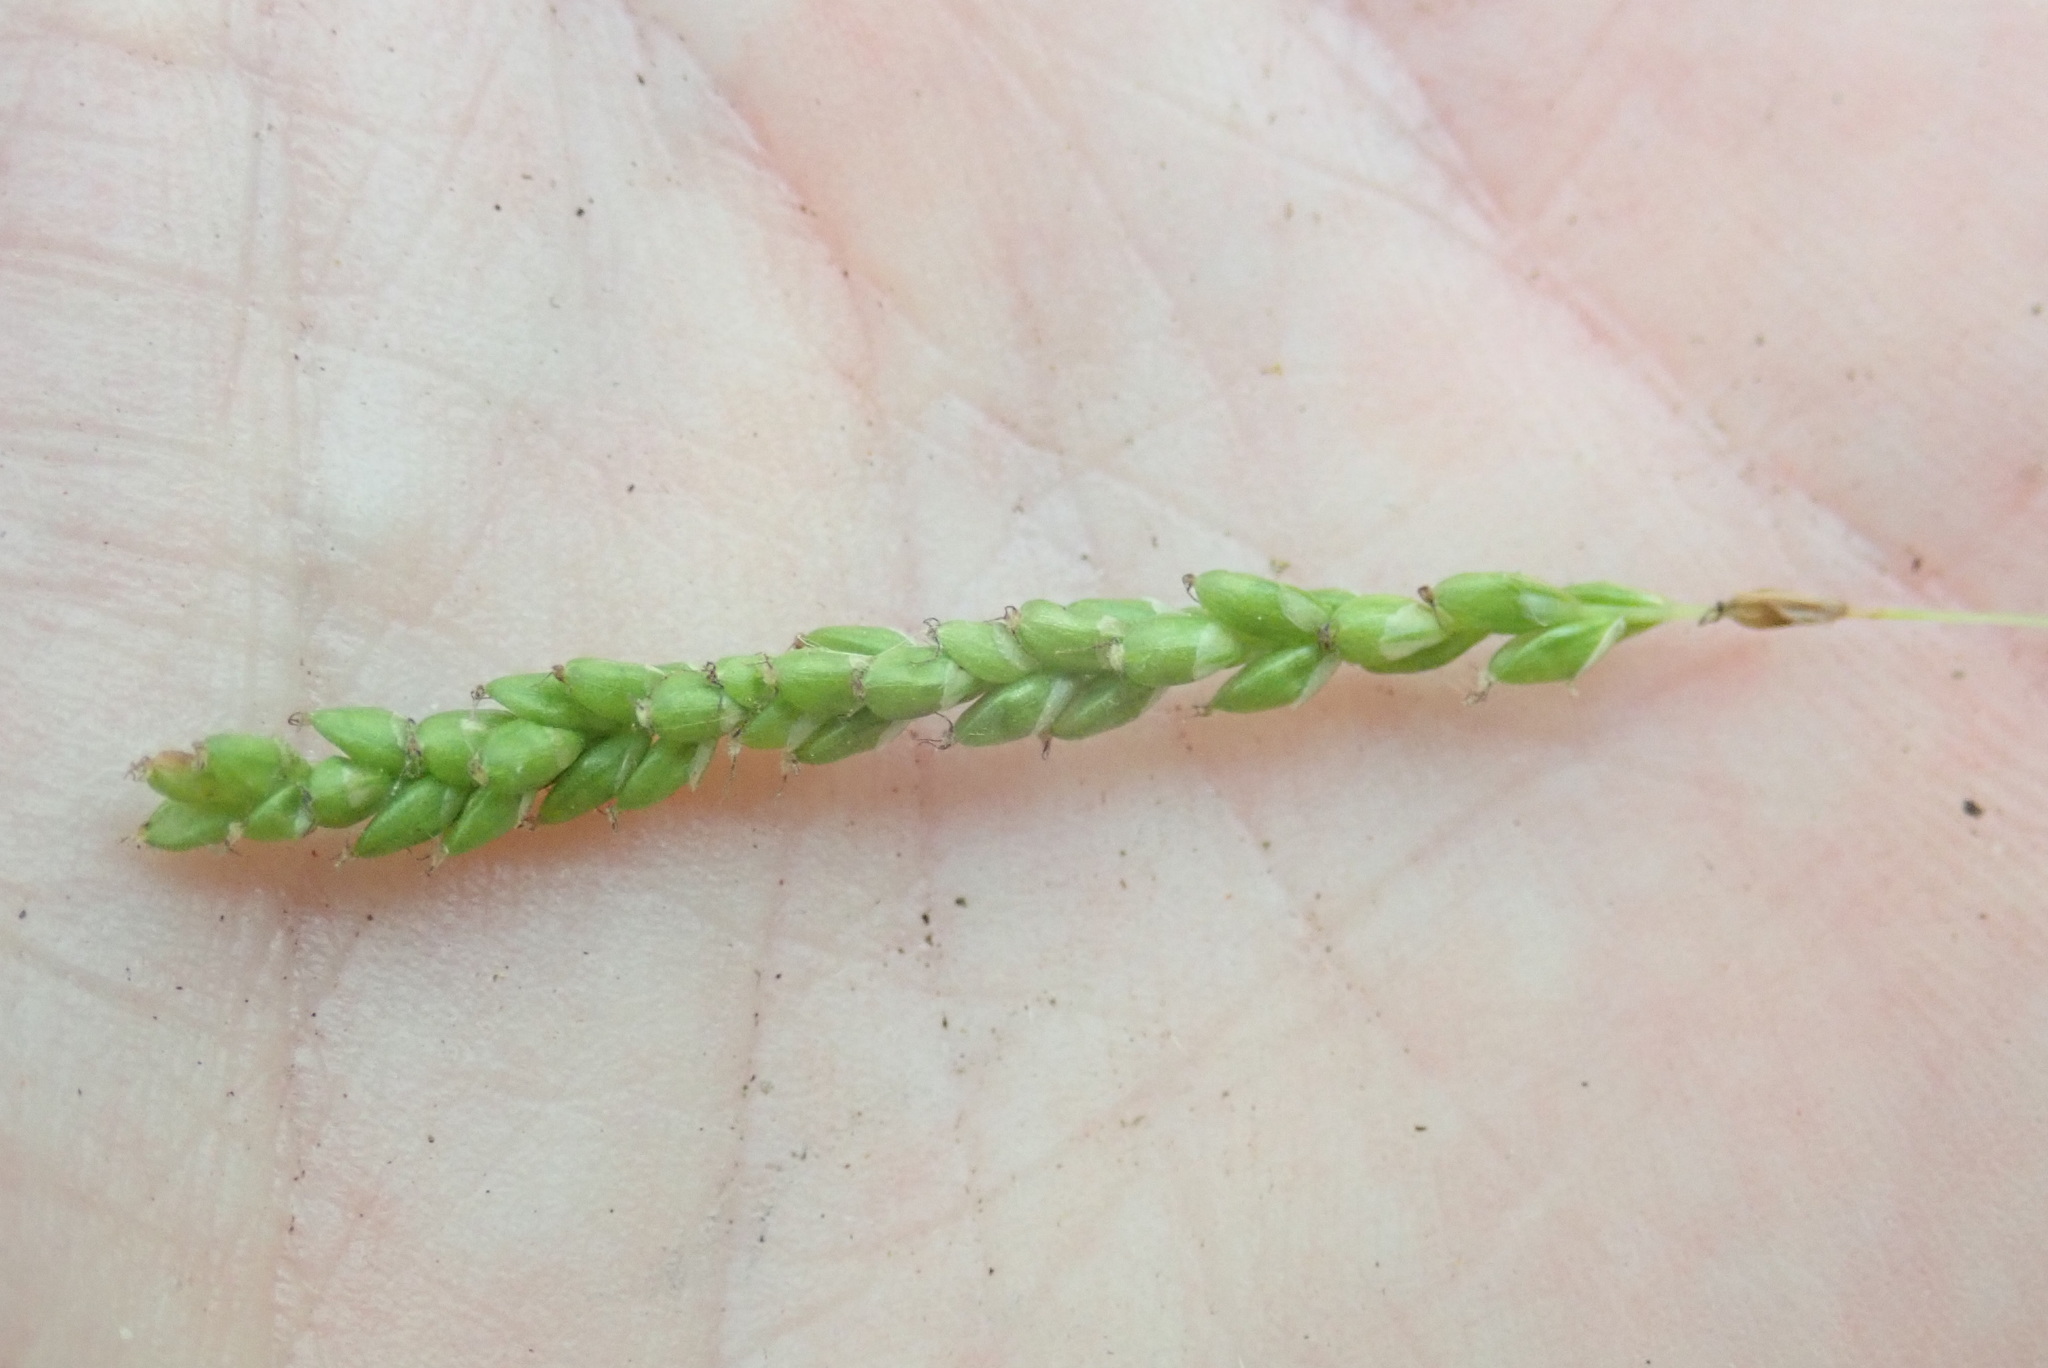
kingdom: Plantae
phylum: Tracheophyta
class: Liliopsida
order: Poales
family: Cyperaceae
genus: Carex
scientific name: Carex gracillima
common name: Graceful sedge
